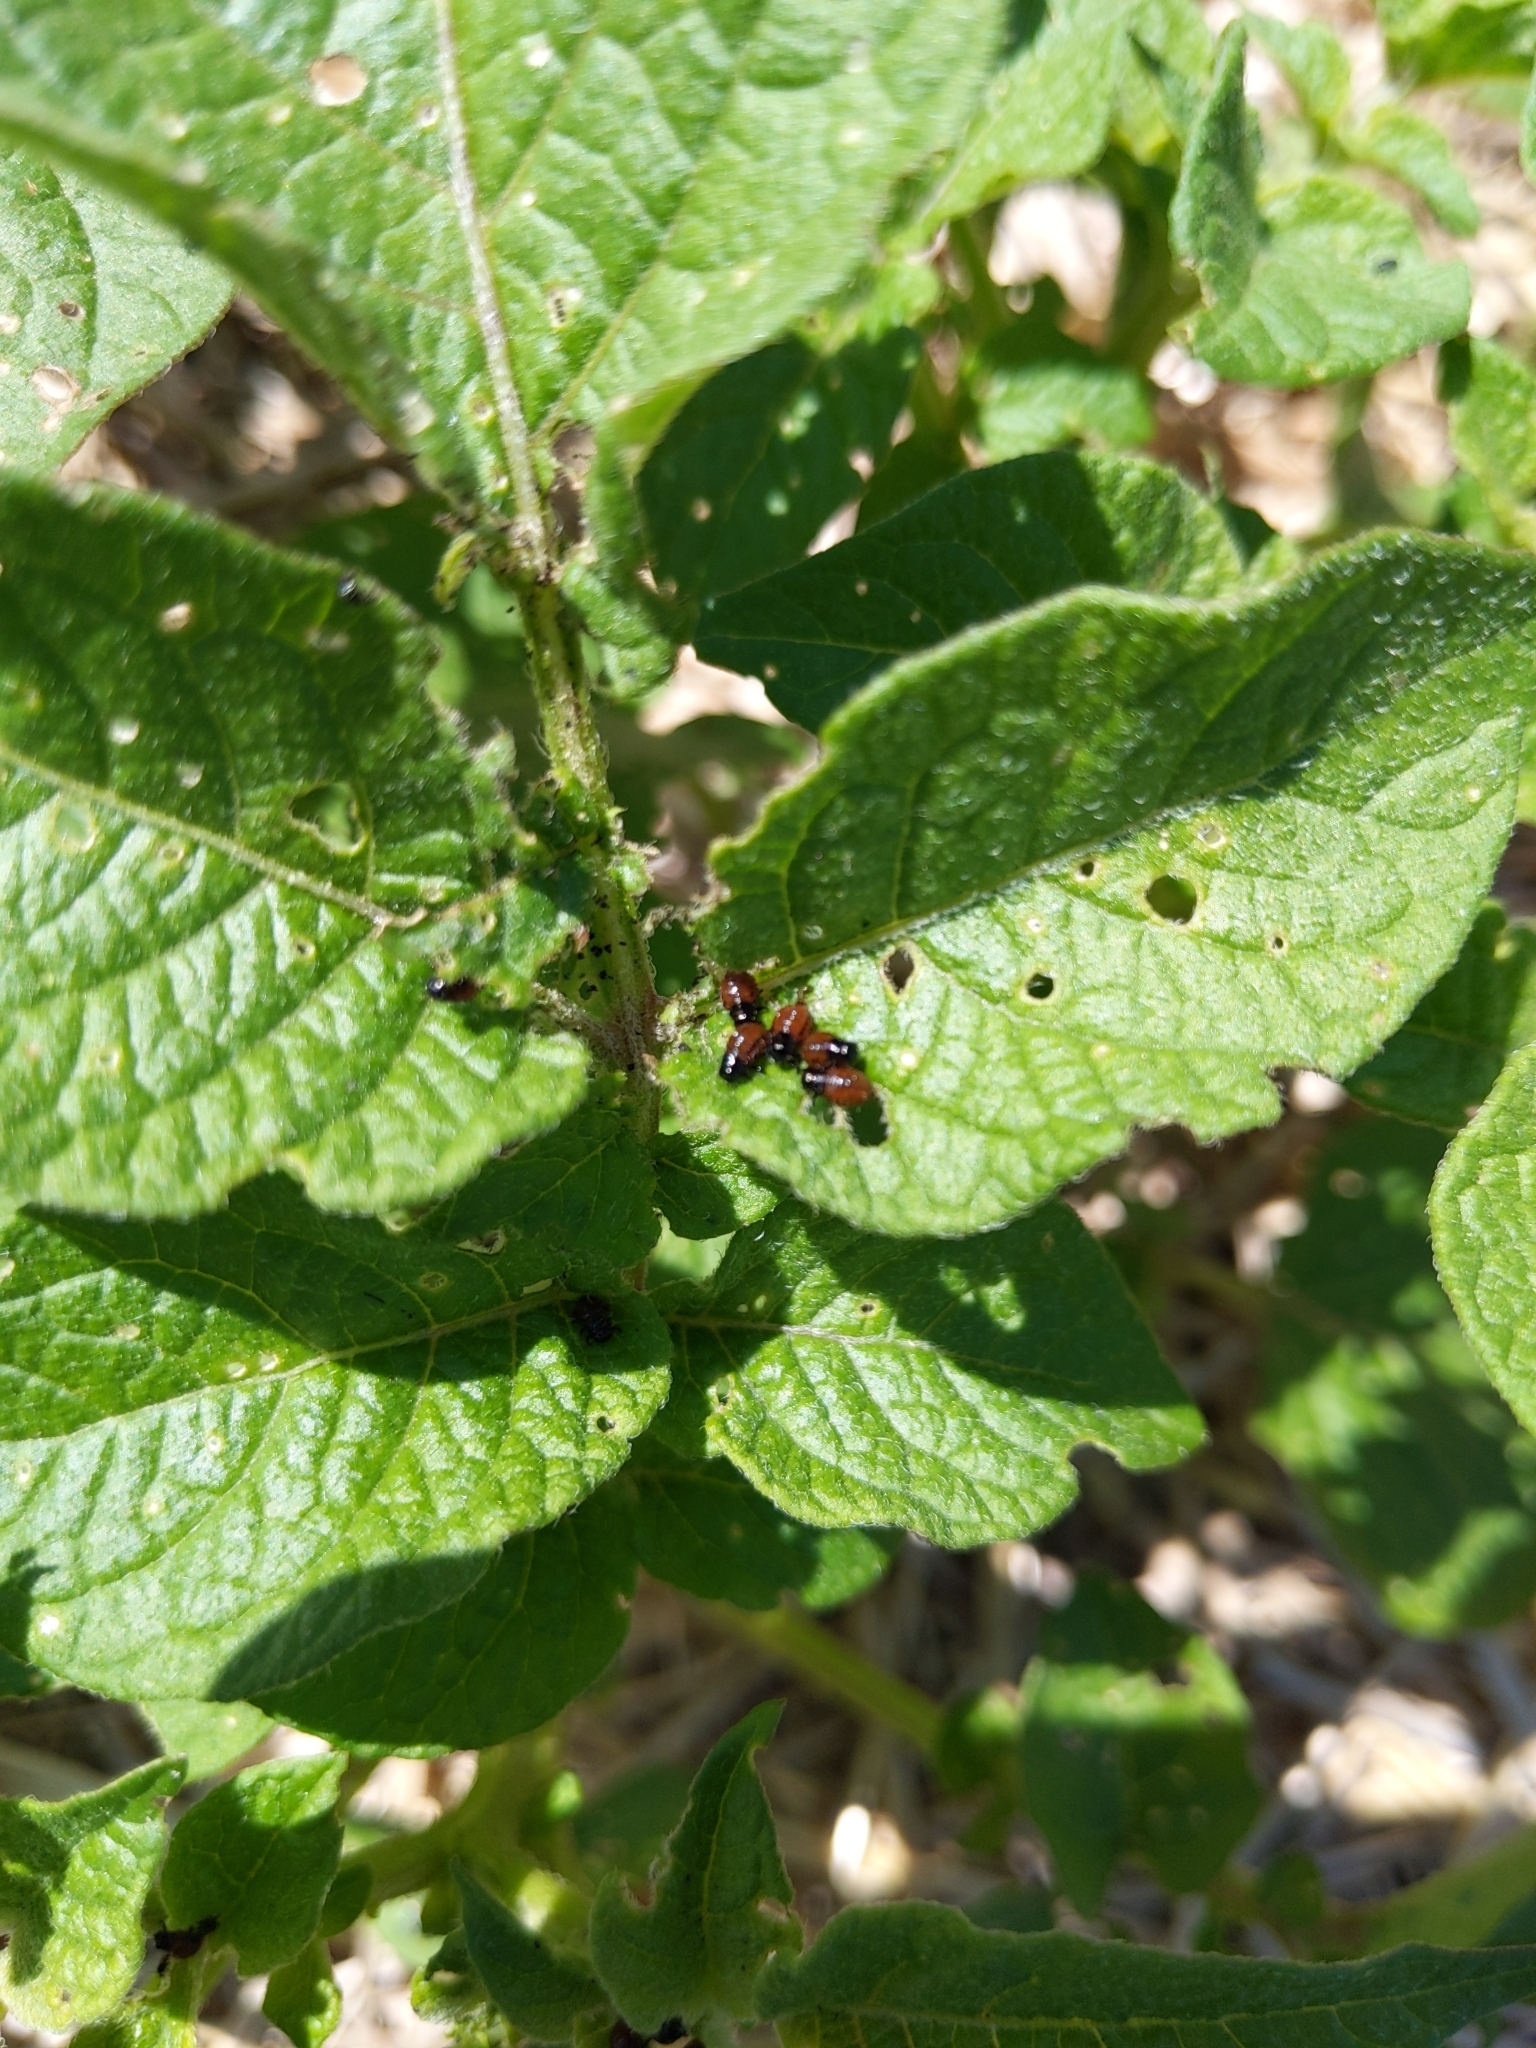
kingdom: Animalia
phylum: Arthropoda
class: Insecta
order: Coleoptera
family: Chrysomelidae
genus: Leptinotarsa
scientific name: Leptinotarsa decemlineata
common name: Colorado potato beetle
